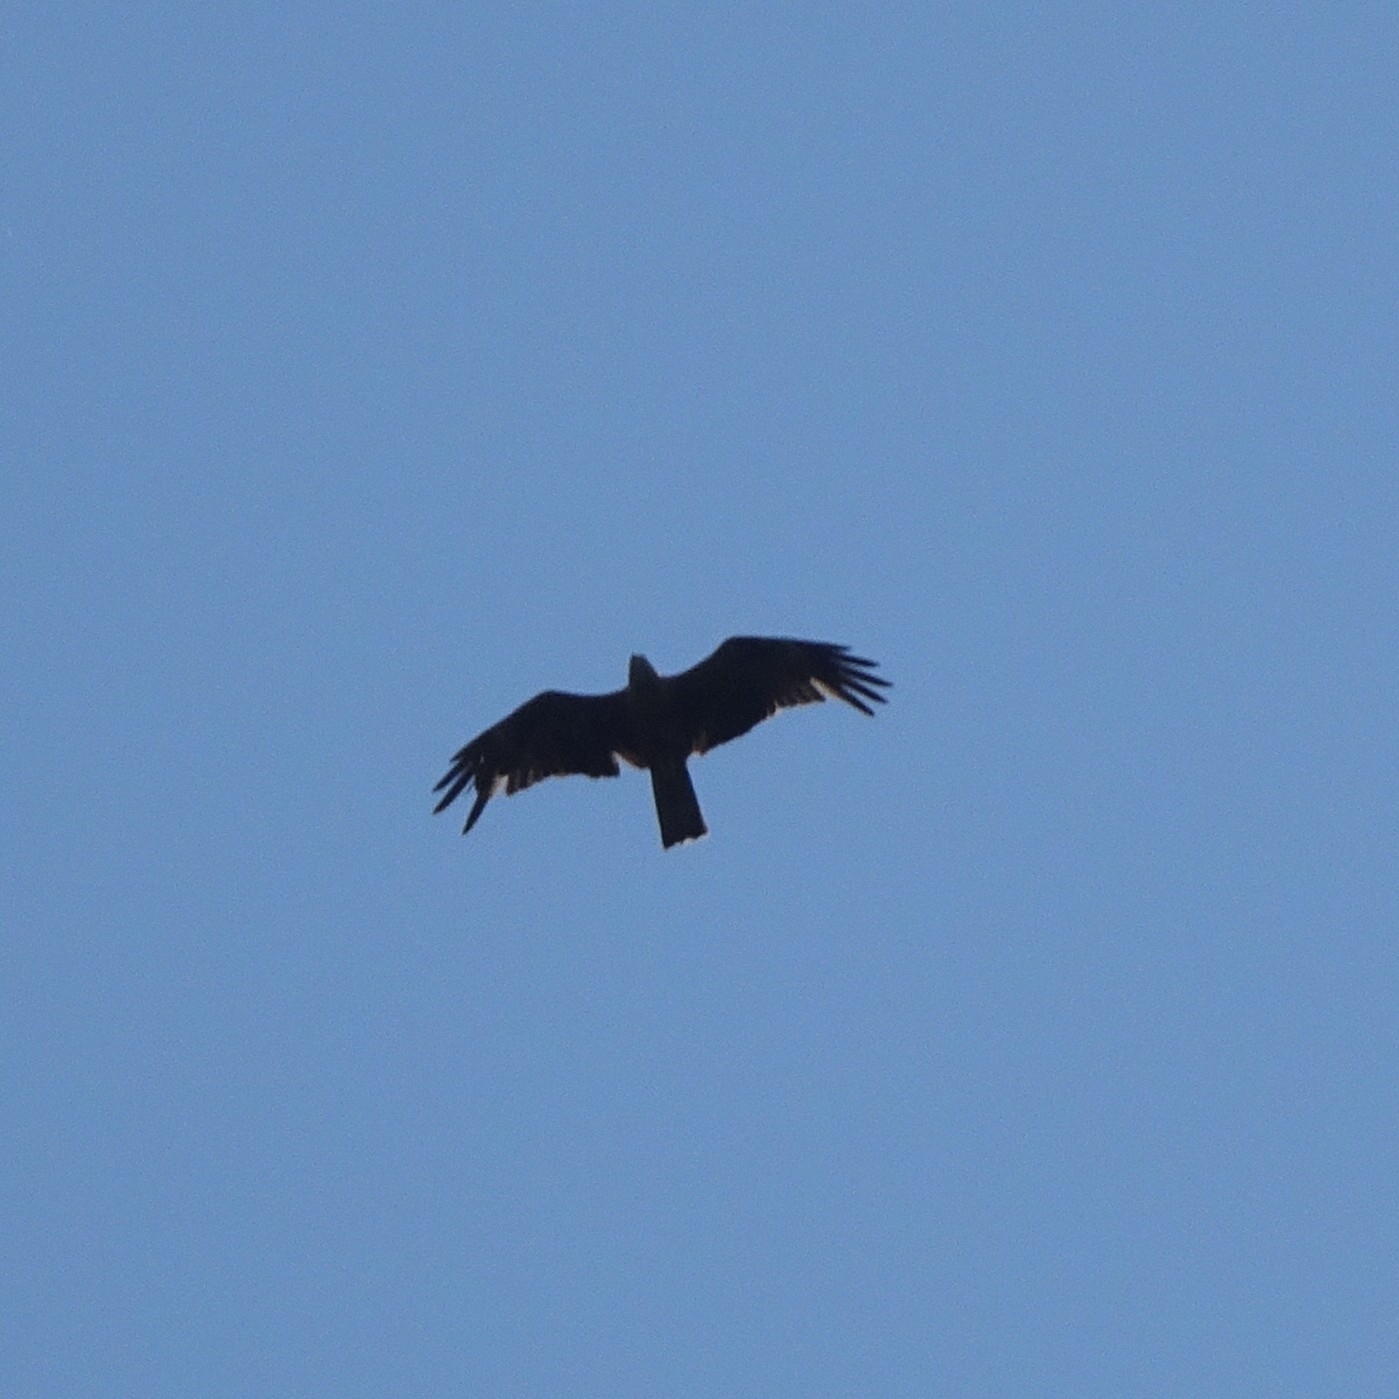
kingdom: Animalia
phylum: Chordata
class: Aves
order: Accipitriformes
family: Accipitridae
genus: Milvus
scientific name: Milvus migrans
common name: Black kite
